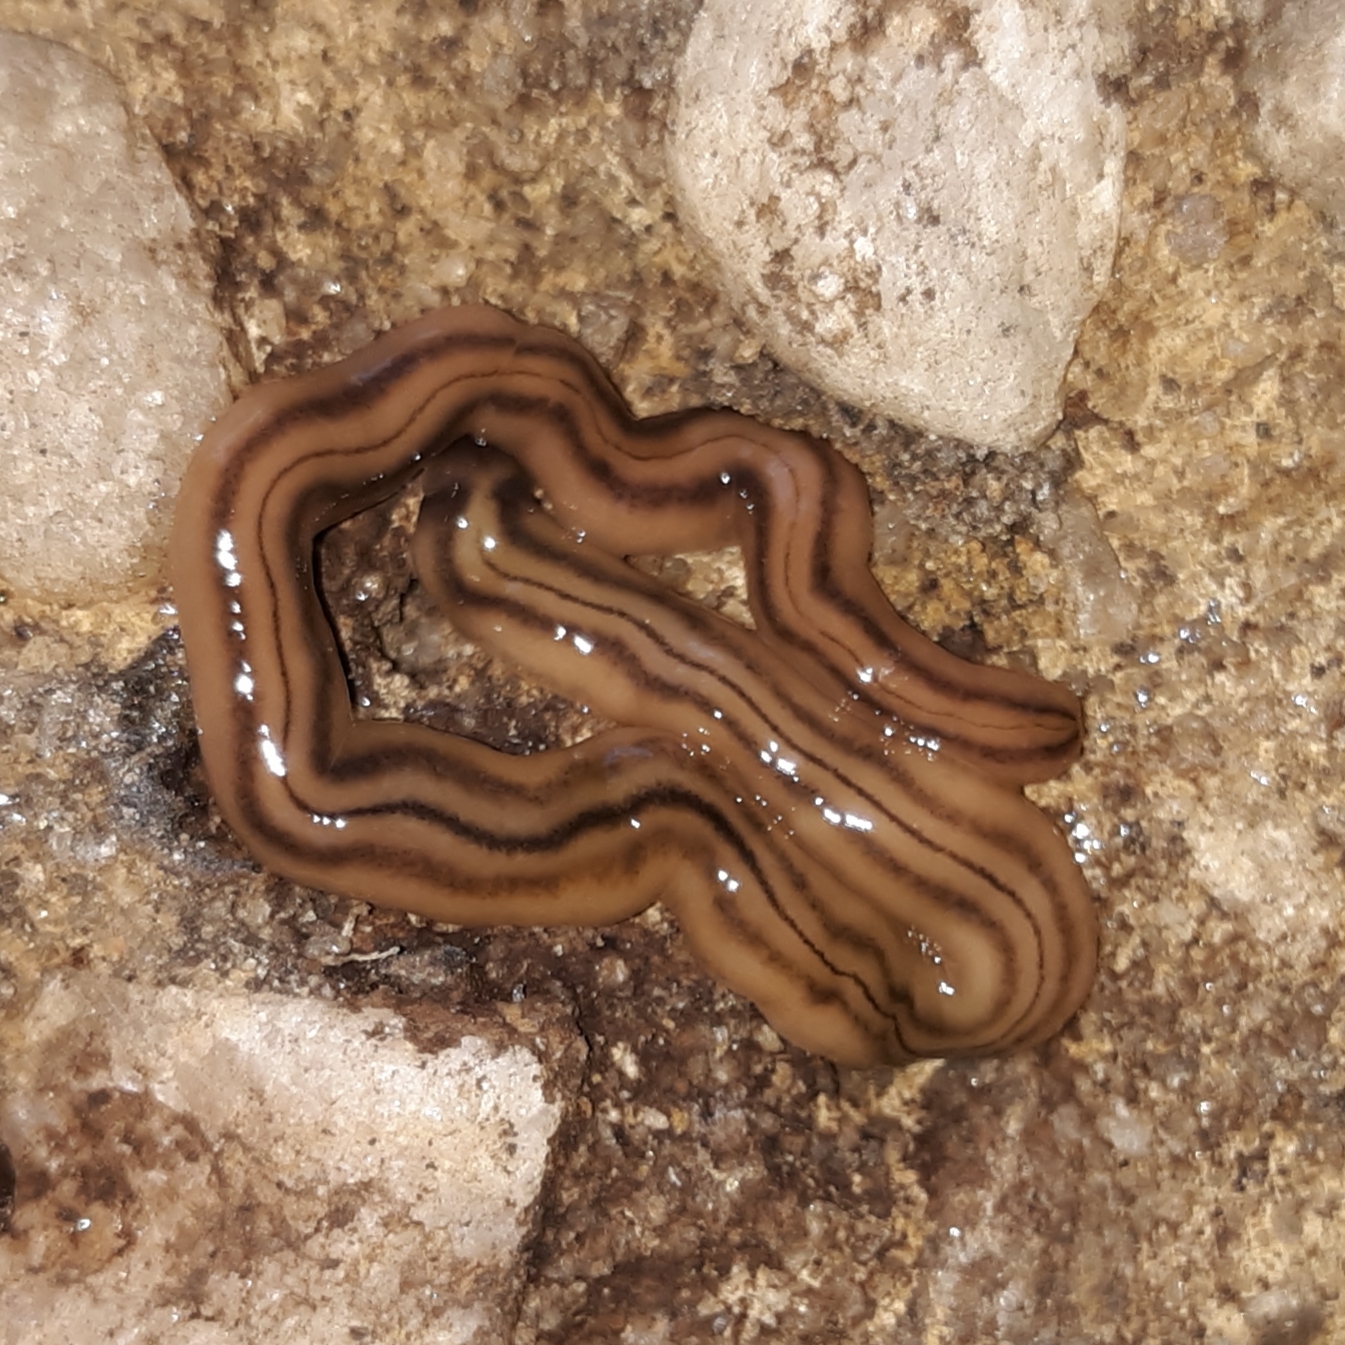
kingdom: Animalia
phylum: Platyhelminthes
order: Tricladida
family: Geoplanidae
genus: Bipalium
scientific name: Bipalium kewense
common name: Hammerhead flatworm
